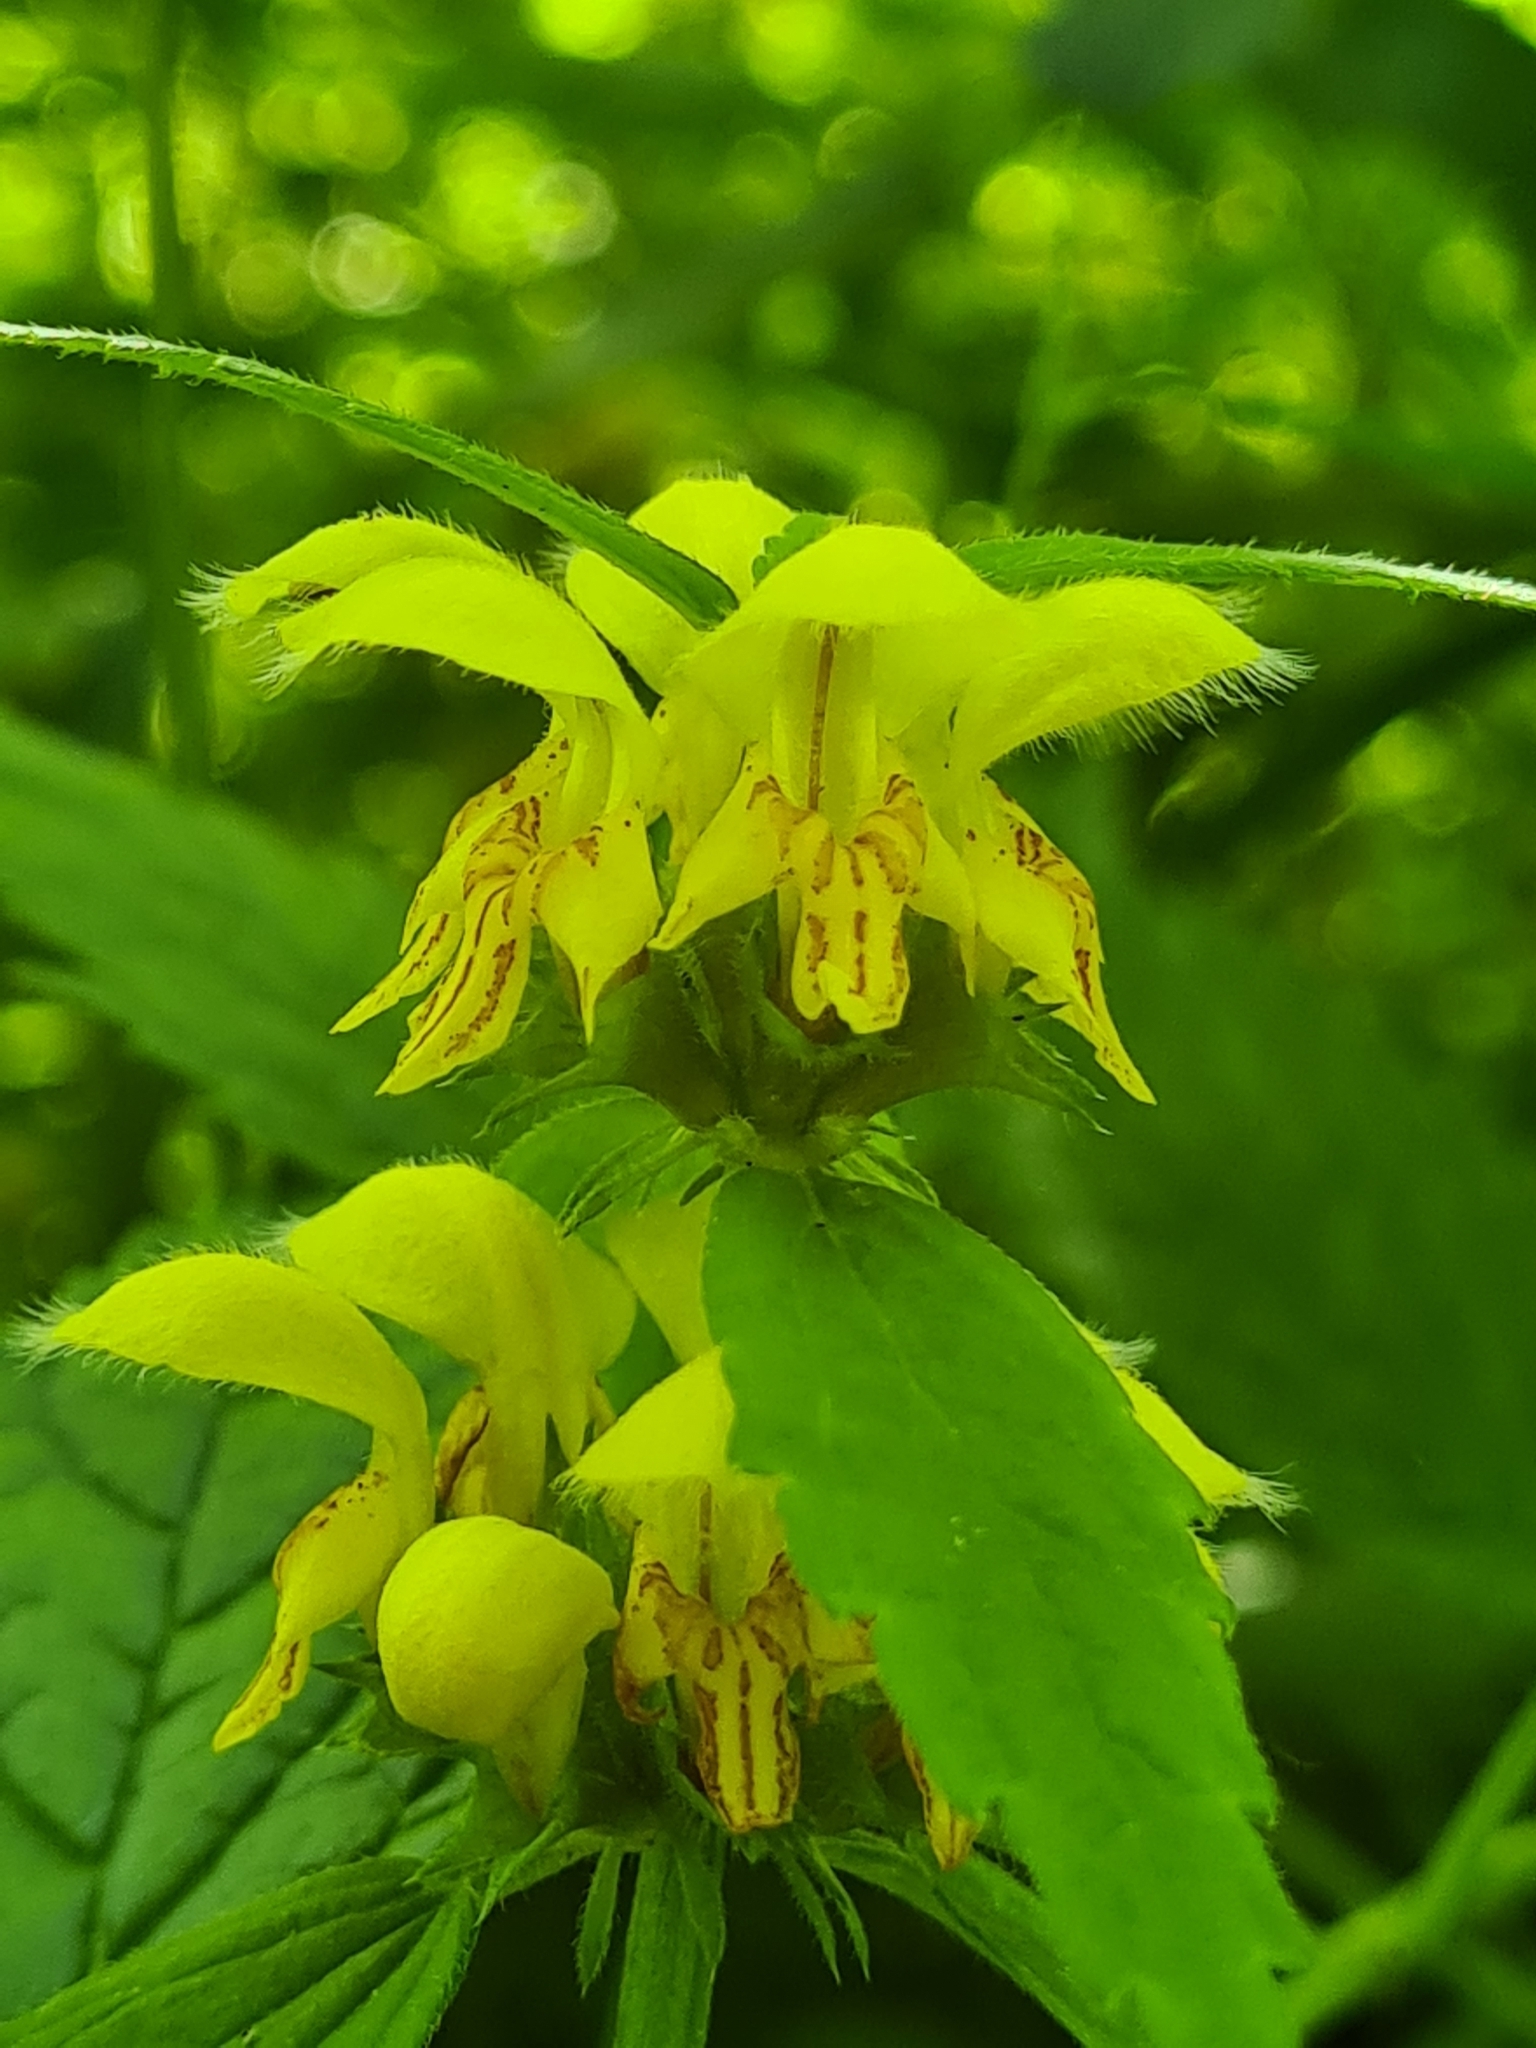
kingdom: Plantae
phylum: Tracheophyta
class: Magnoliopsida
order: Lamiales
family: Lamiaceae
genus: Lamium
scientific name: Lamium galeobdolon
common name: Yellow archangel
